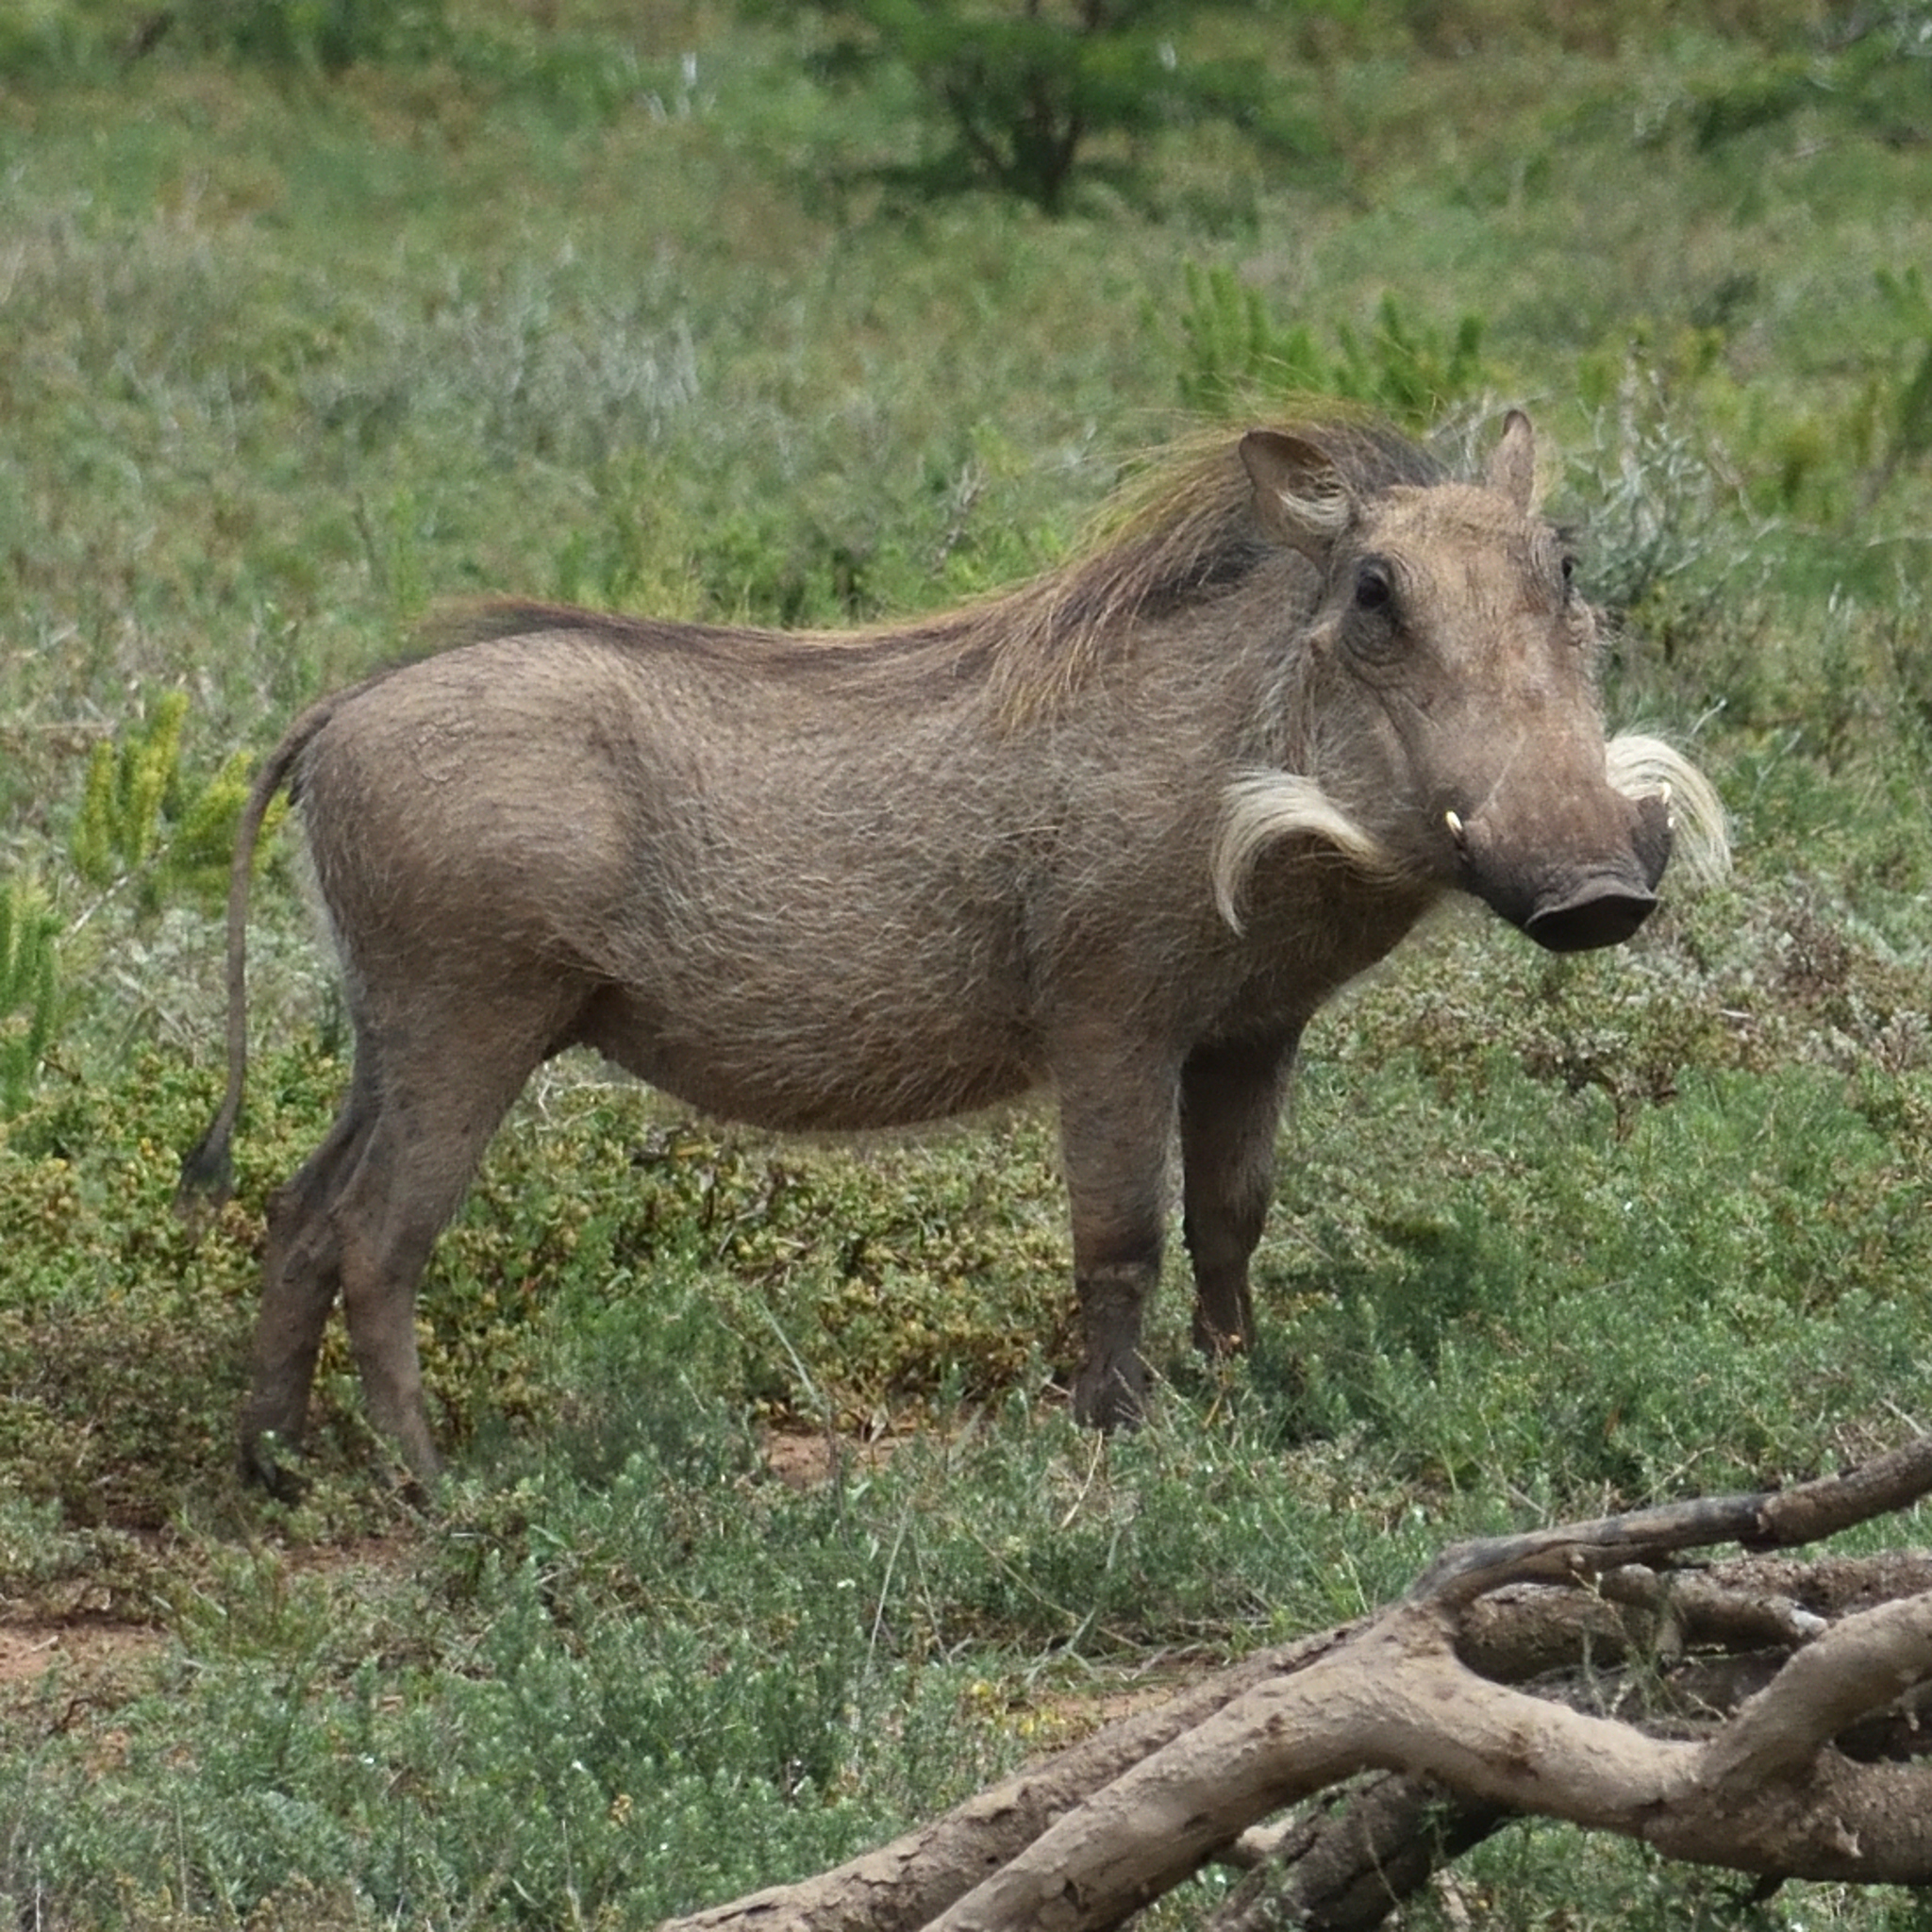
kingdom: Animalia
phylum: Chordata
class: Mammalia
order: Artiodactyla
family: Suidae
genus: Phacochoerus
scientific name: Phacochoerus africanus
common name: Common warthog
